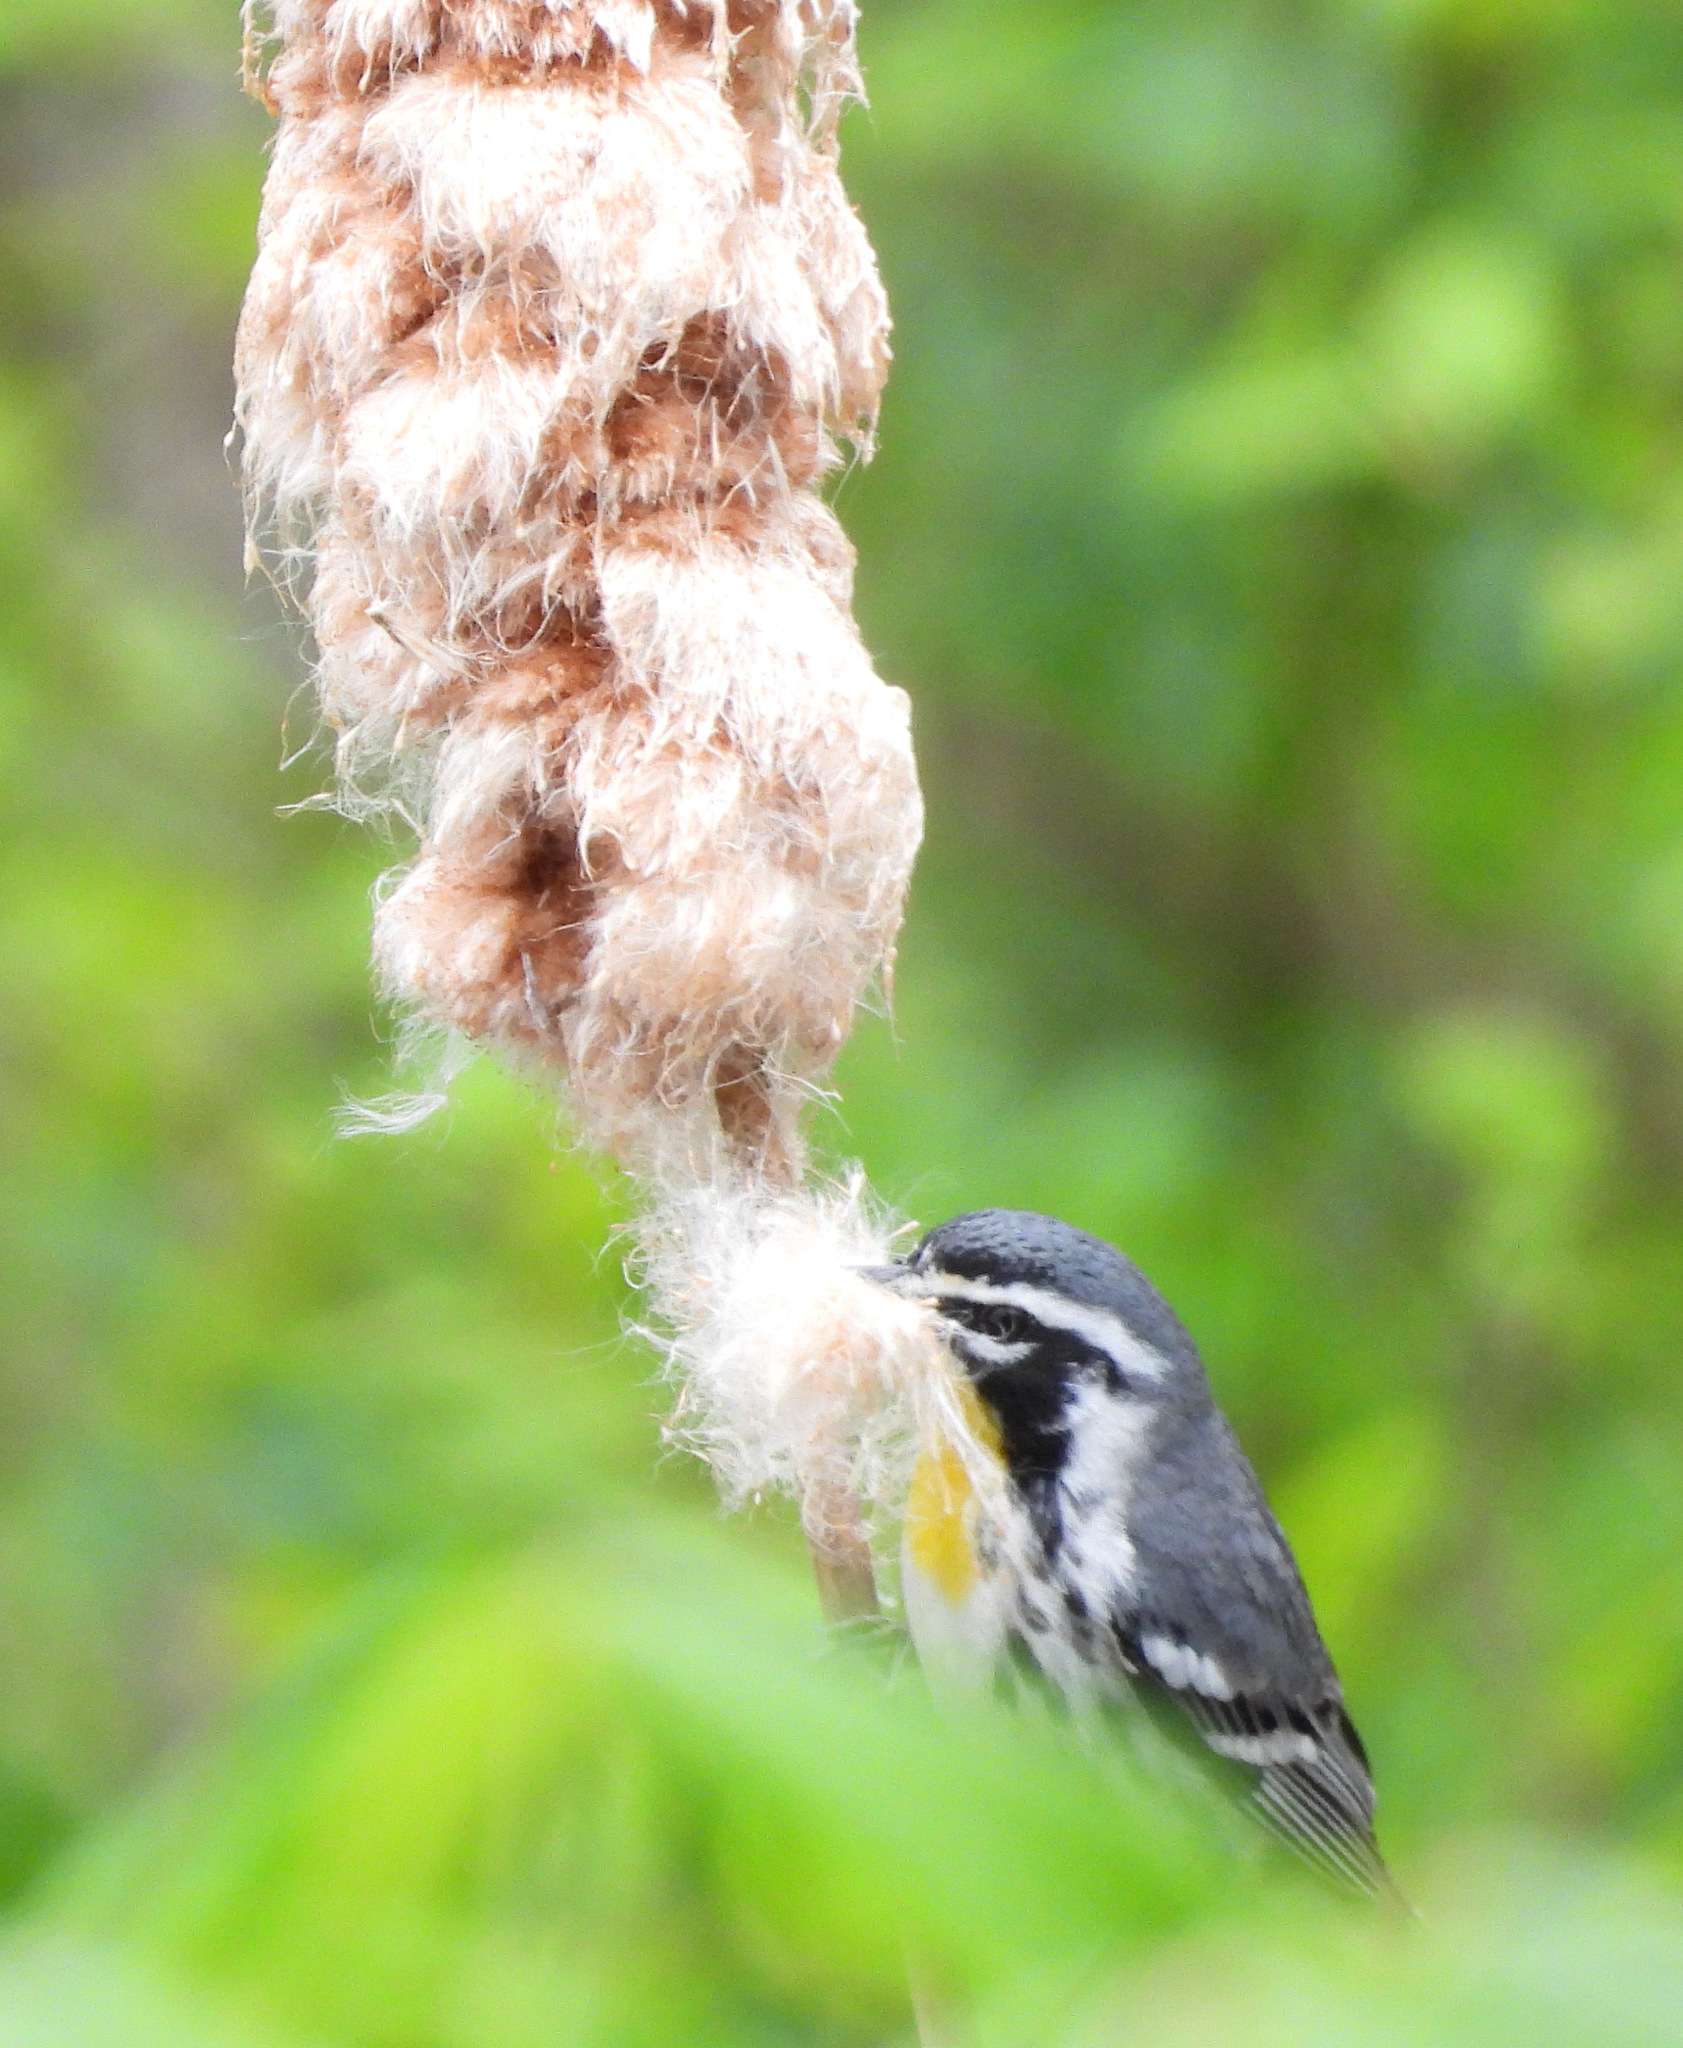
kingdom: Animalia
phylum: Chordata
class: Aves
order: Passeriformes
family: Parulidae
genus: Setophaga
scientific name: Setophaga dominica
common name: Yellow-throated warbler
